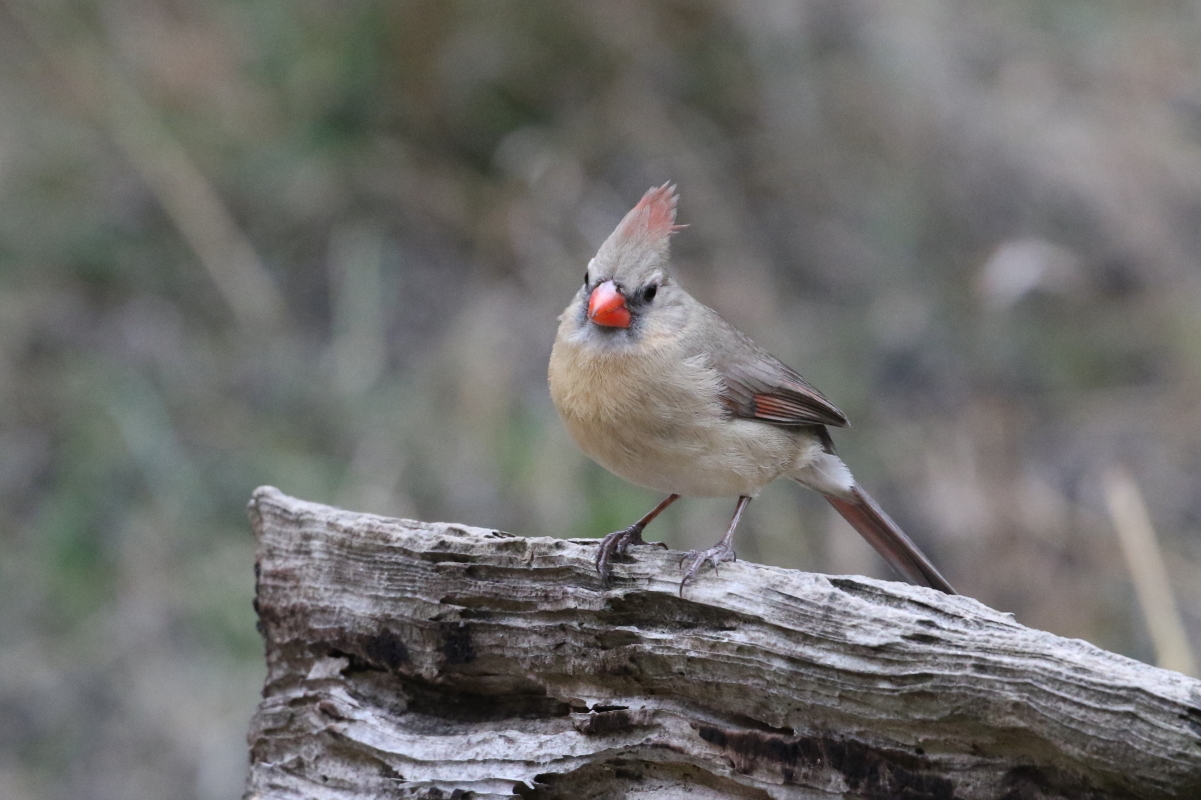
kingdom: Animalia
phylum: Chordata
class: Aves
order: Passeriformes
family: Cardinalidae
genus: Cardinalis
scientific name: Cardinalis cardinalis
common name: Northern cardinal
